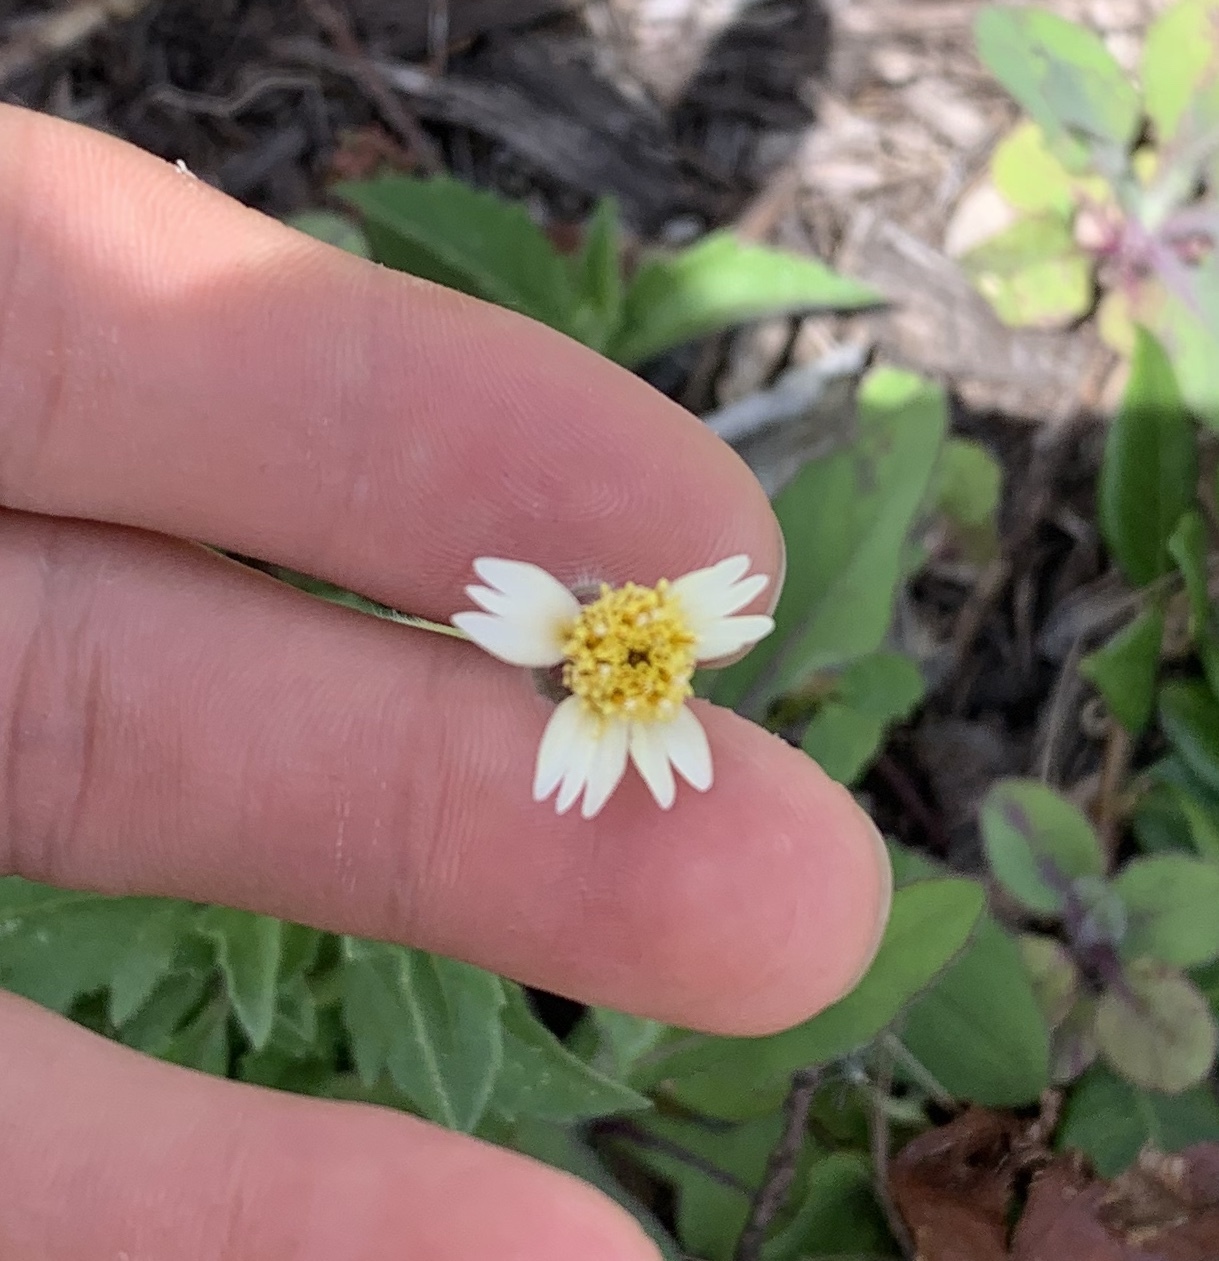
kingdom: Plantae
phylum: Tracheophyta
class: Magnoliopsida
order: Asterales
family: Asteraceae
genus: Tridax
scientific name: Tridax procumbens
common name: Coatbuttons
